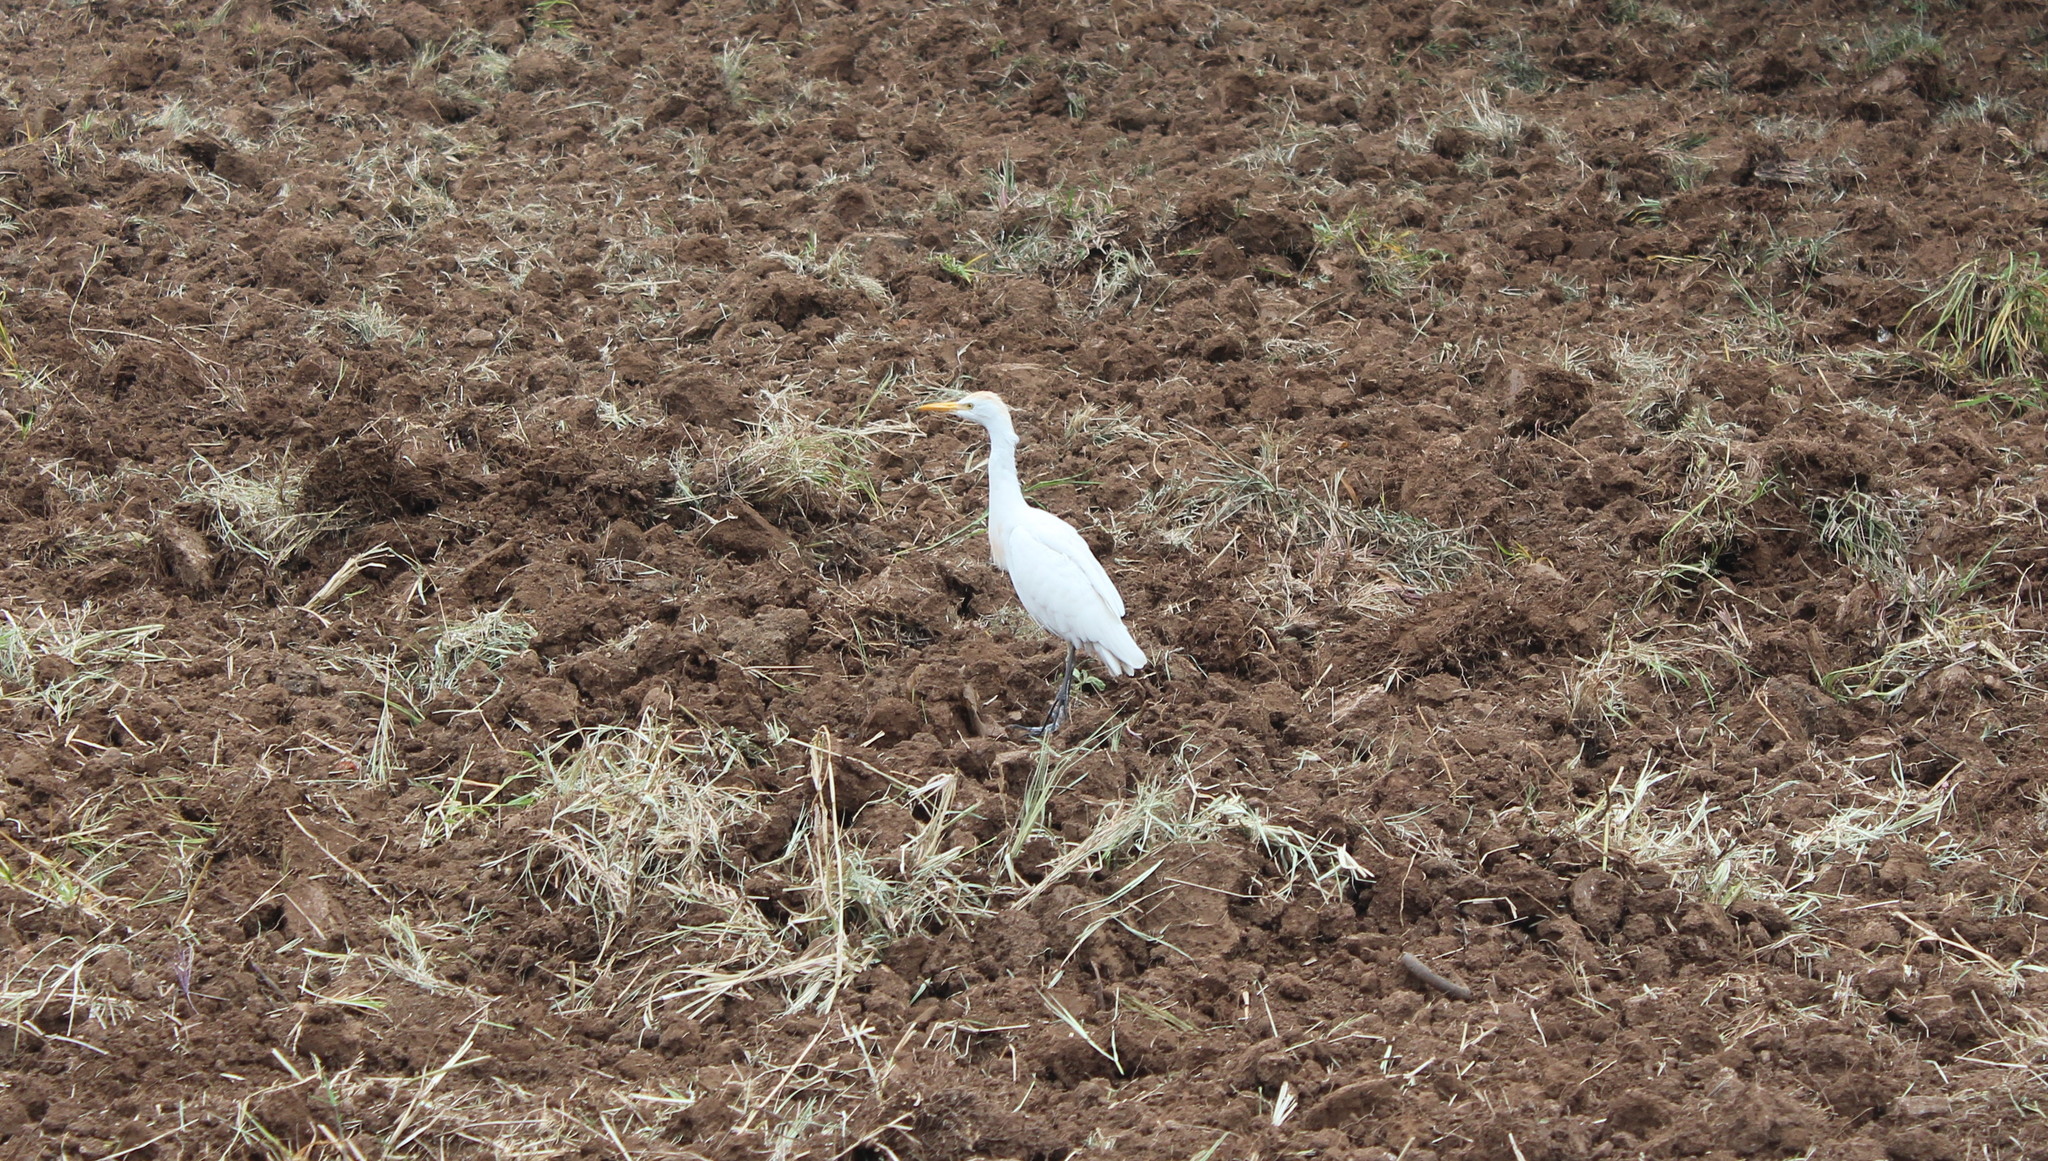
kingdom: Animalia
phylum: Chordata
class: Aves
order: Pelecaniformes
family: Ardeidae
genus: Bubulcus
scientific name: Bubulcus ibis
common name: Cattle egret
